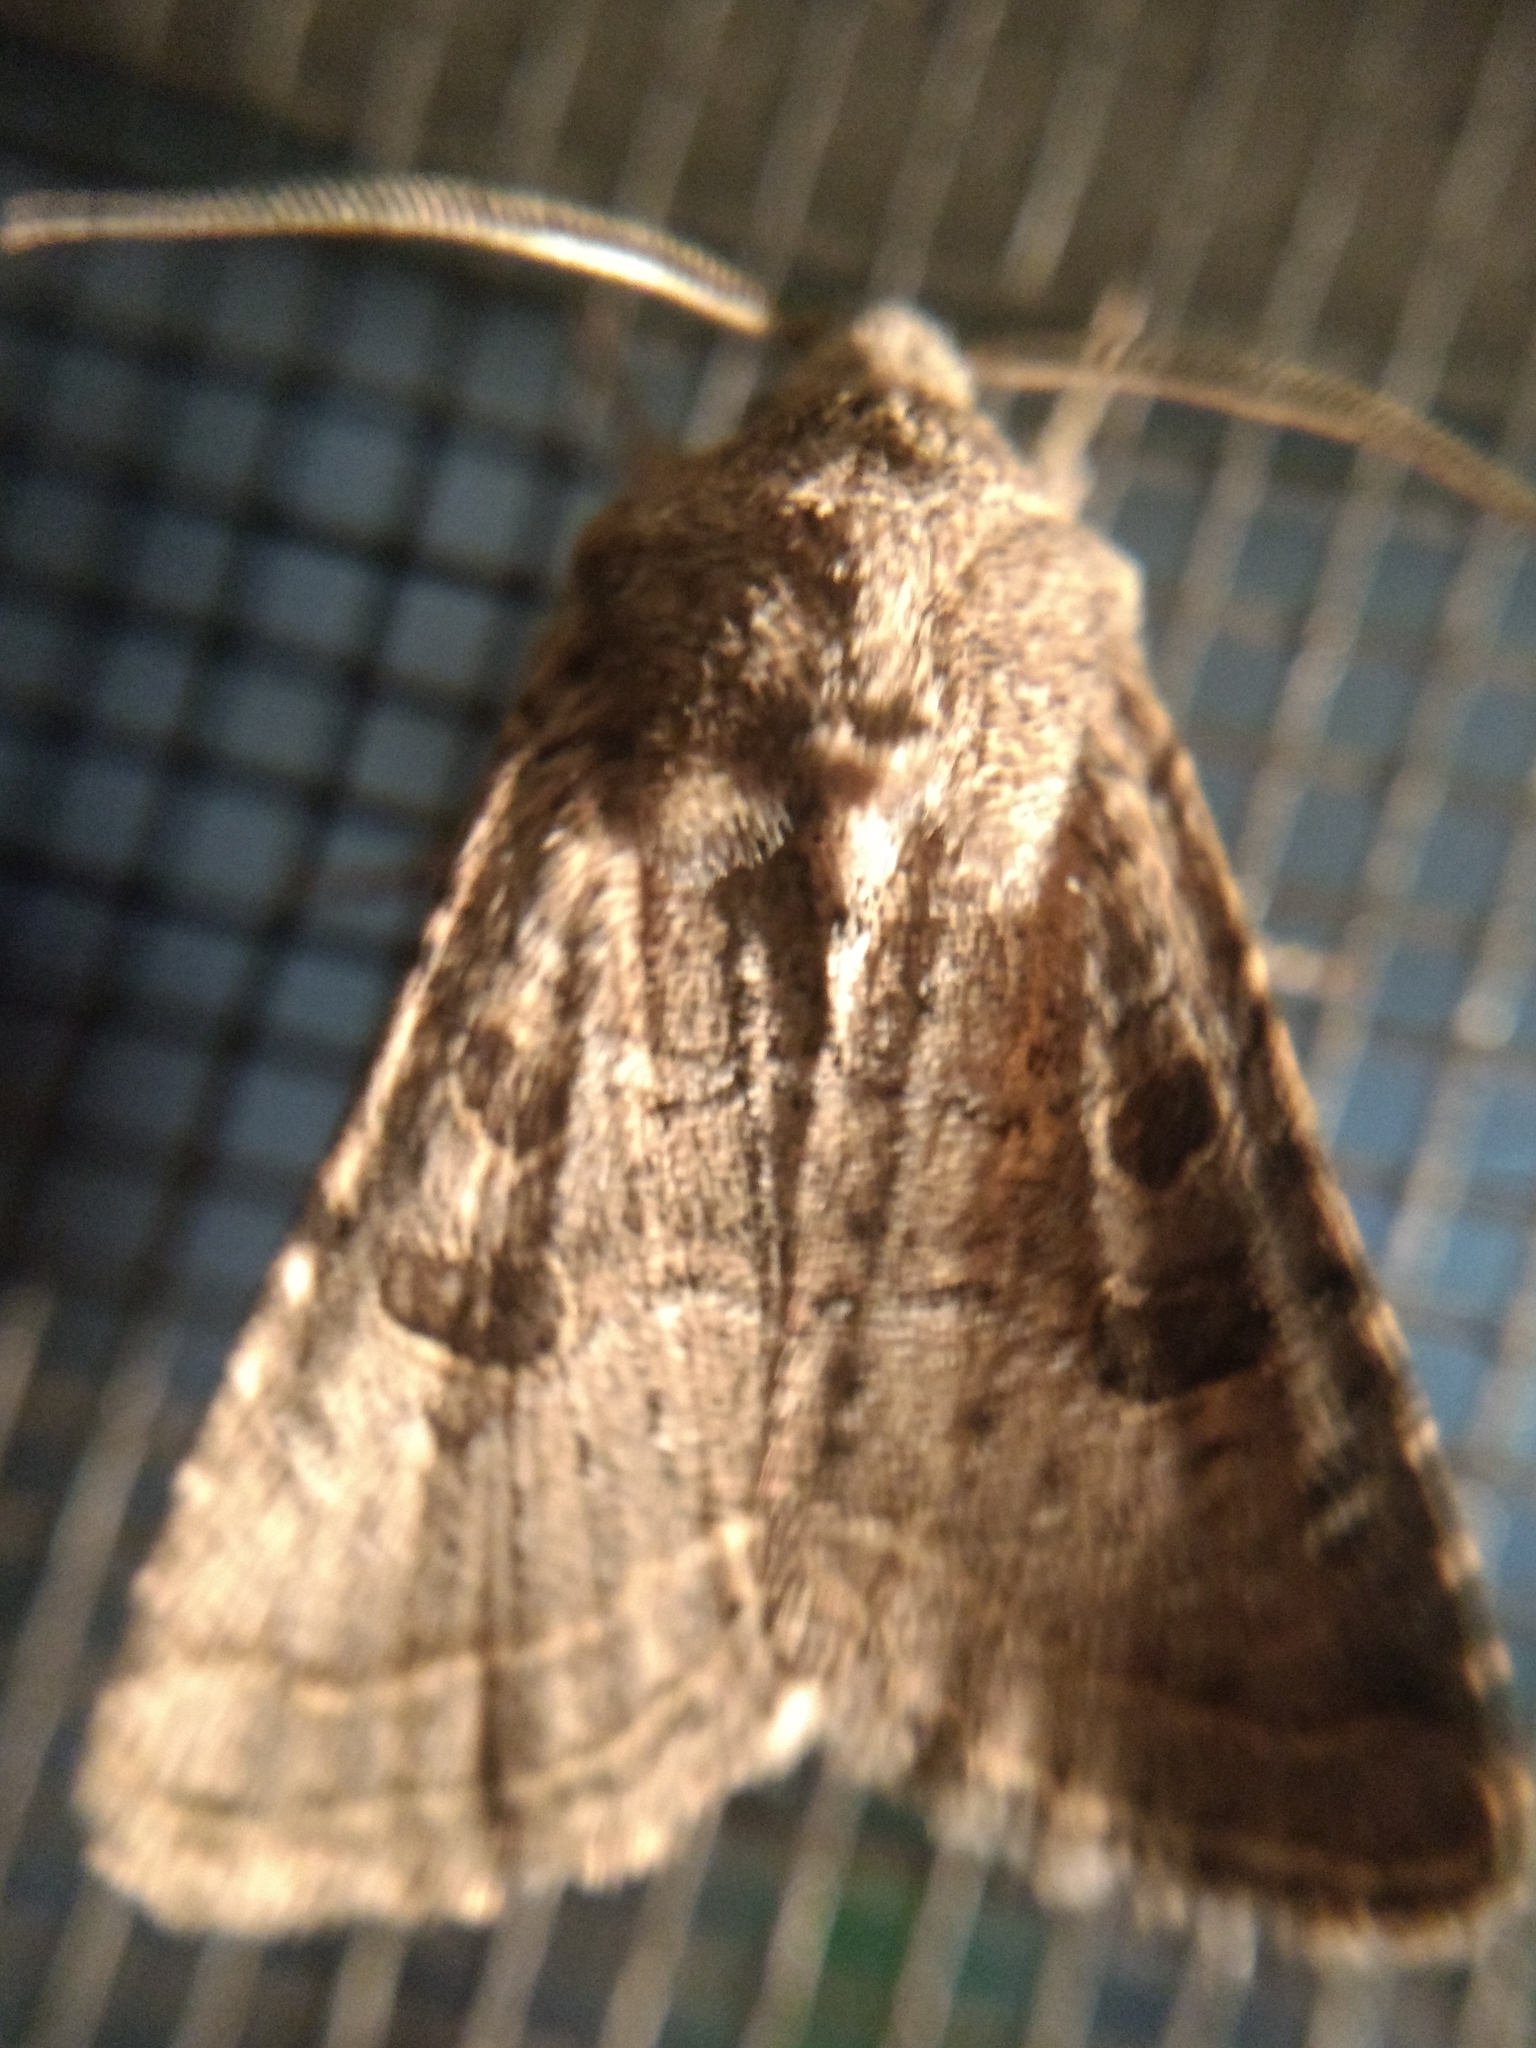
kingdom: Animalia
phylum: Arthropoda
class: Insecta
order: Lepidoptera
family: Noctuidae
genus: Trichopolia
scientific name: Trichopolia
